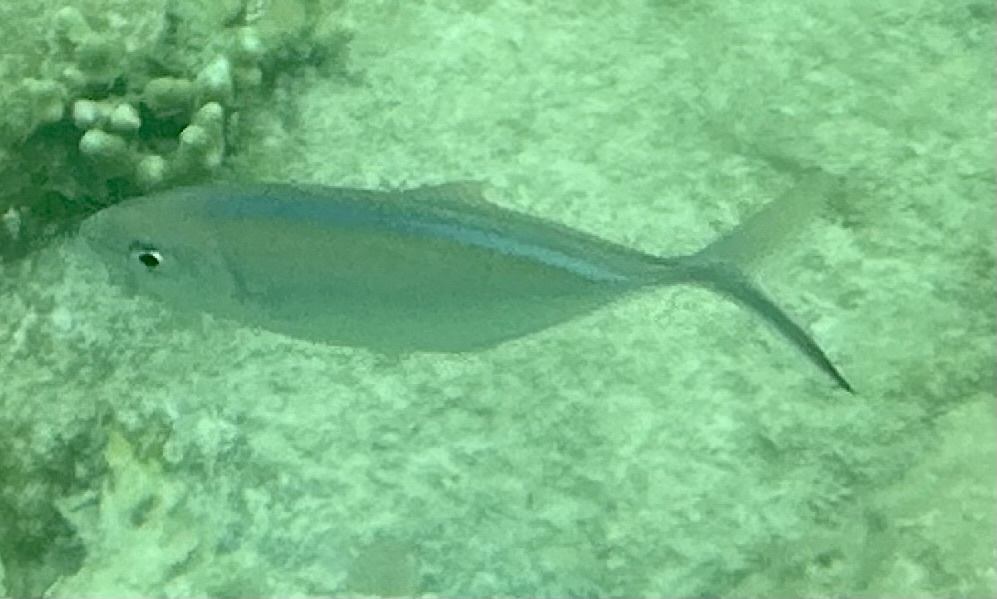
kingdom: Animalia
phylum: Chordata
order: Perciformes
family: Carangidae
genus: Caranx
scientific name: Caranx ruber
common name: Bar jack
